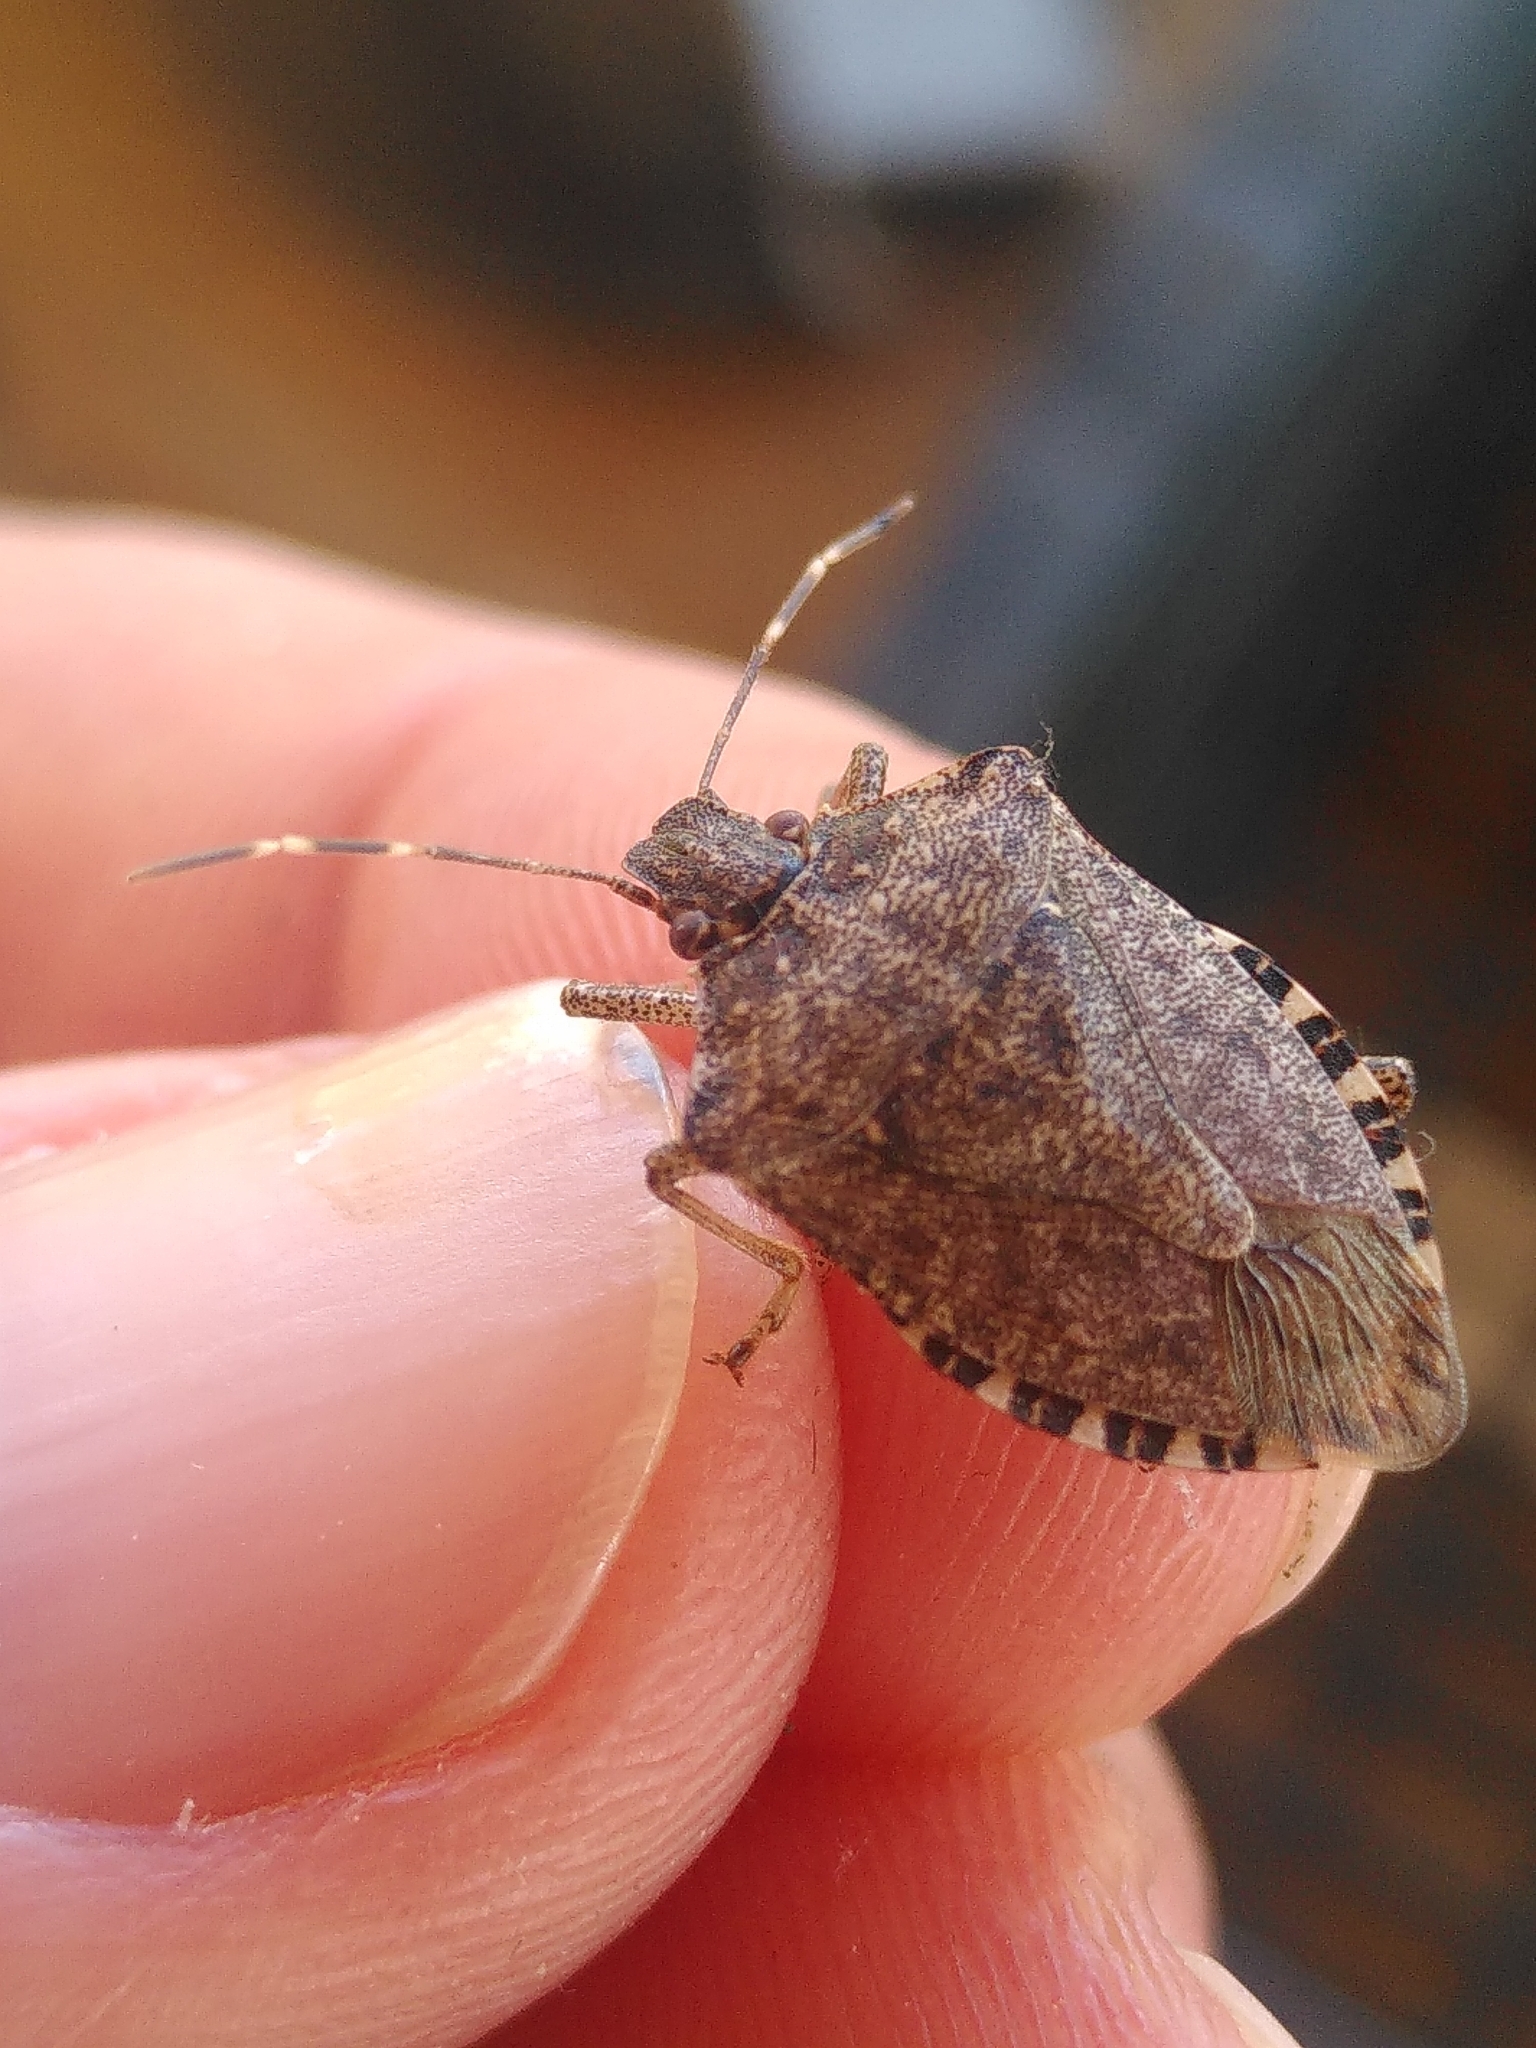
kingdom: Animalia
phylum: Arthropoda
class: Insecta
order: Hemiptera
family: Pentatomidae
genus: Halyomorpha
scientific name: Halyomorpha halys
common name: Brown marmorated stink bug
